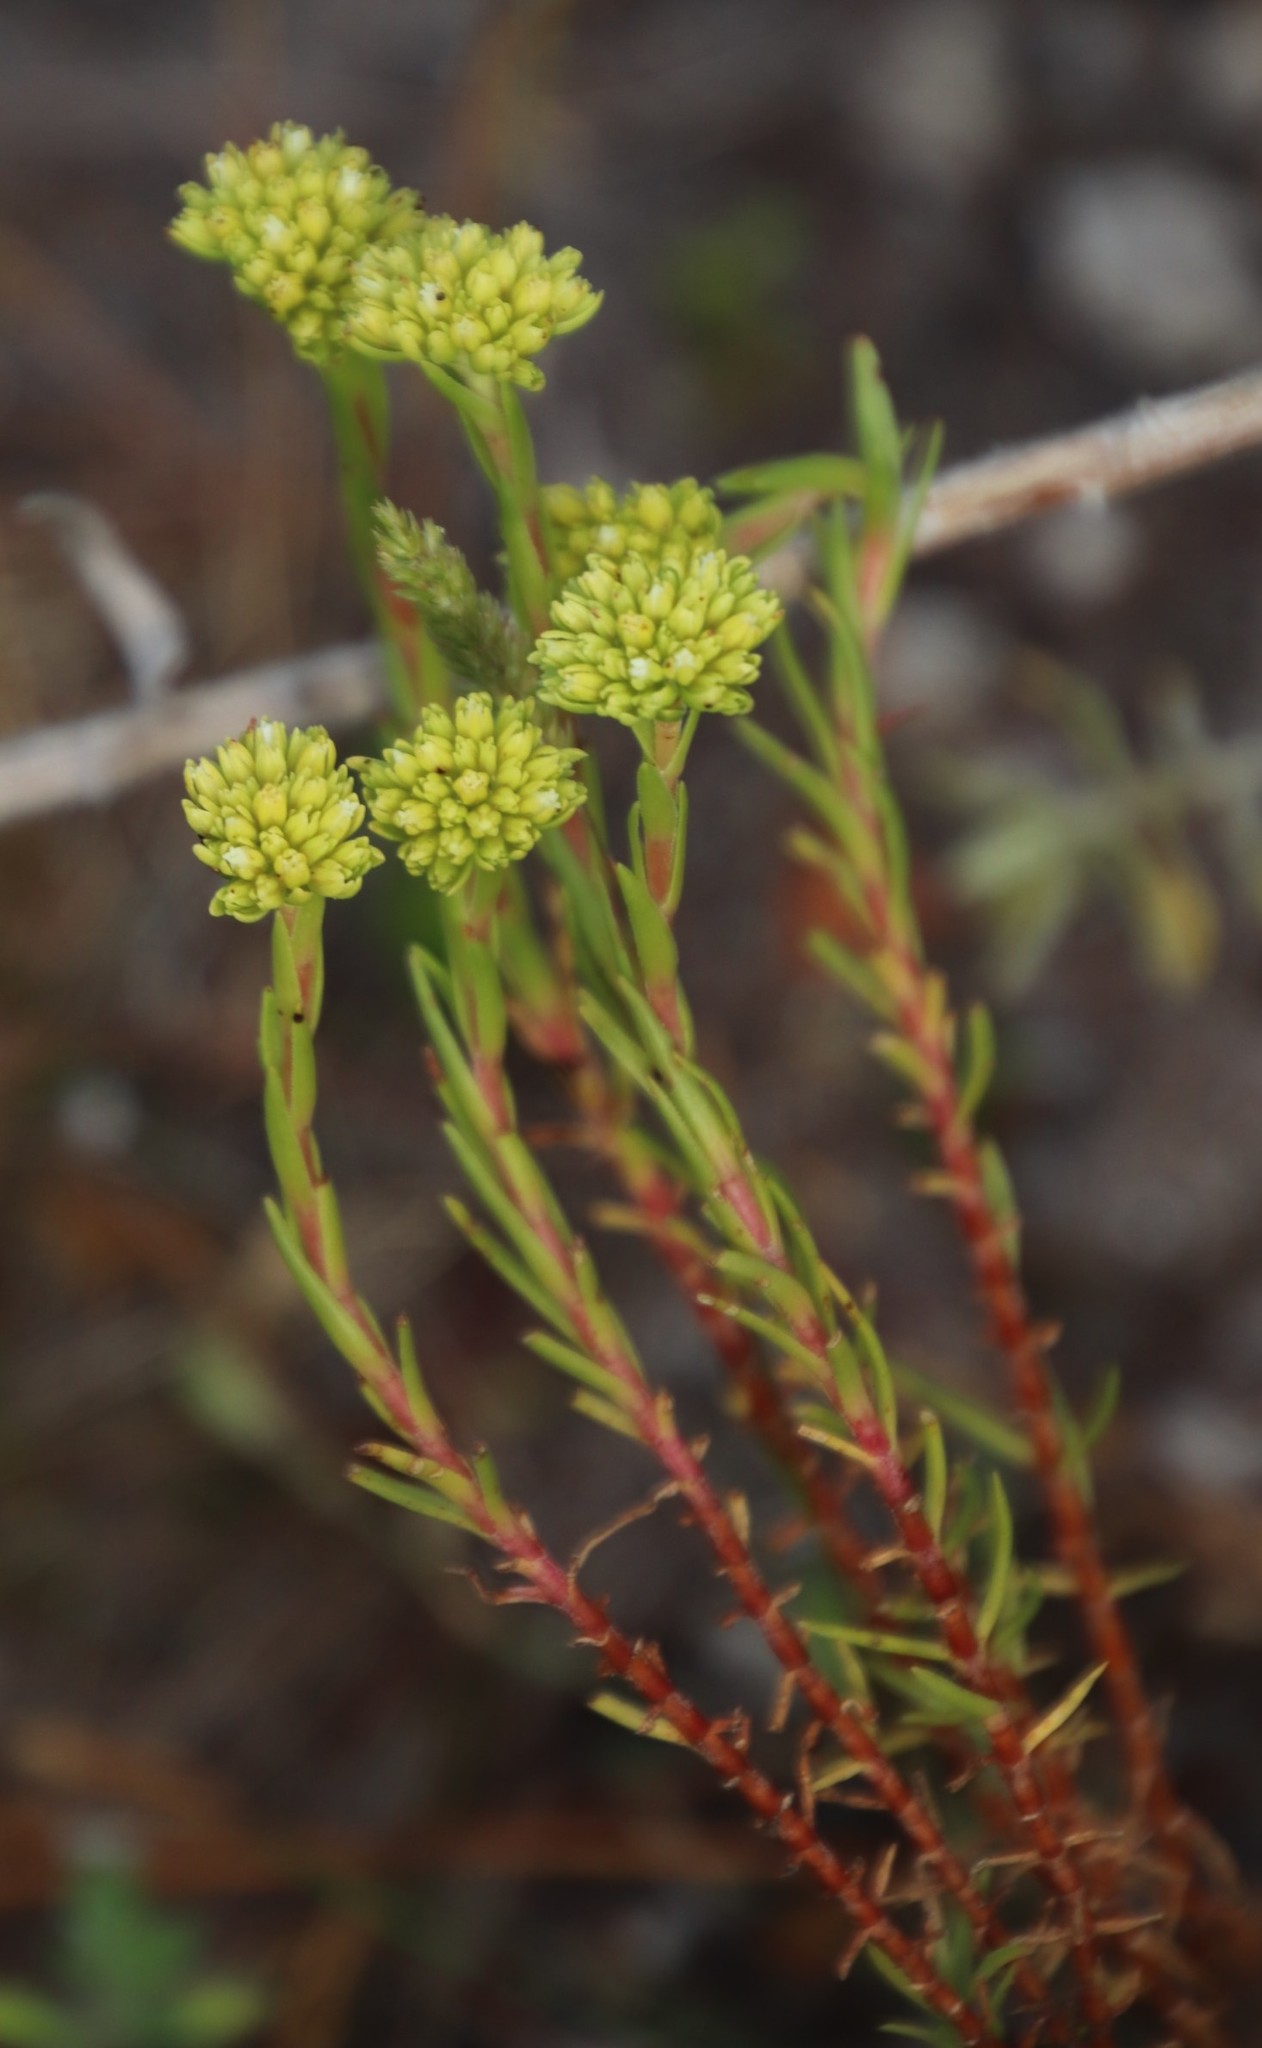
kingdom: Plantae
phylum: Tracheophyta
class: Magnoliopsida
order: Saxifragales
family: Crassulaceae
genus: Crassula
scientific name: Crassula subulata
